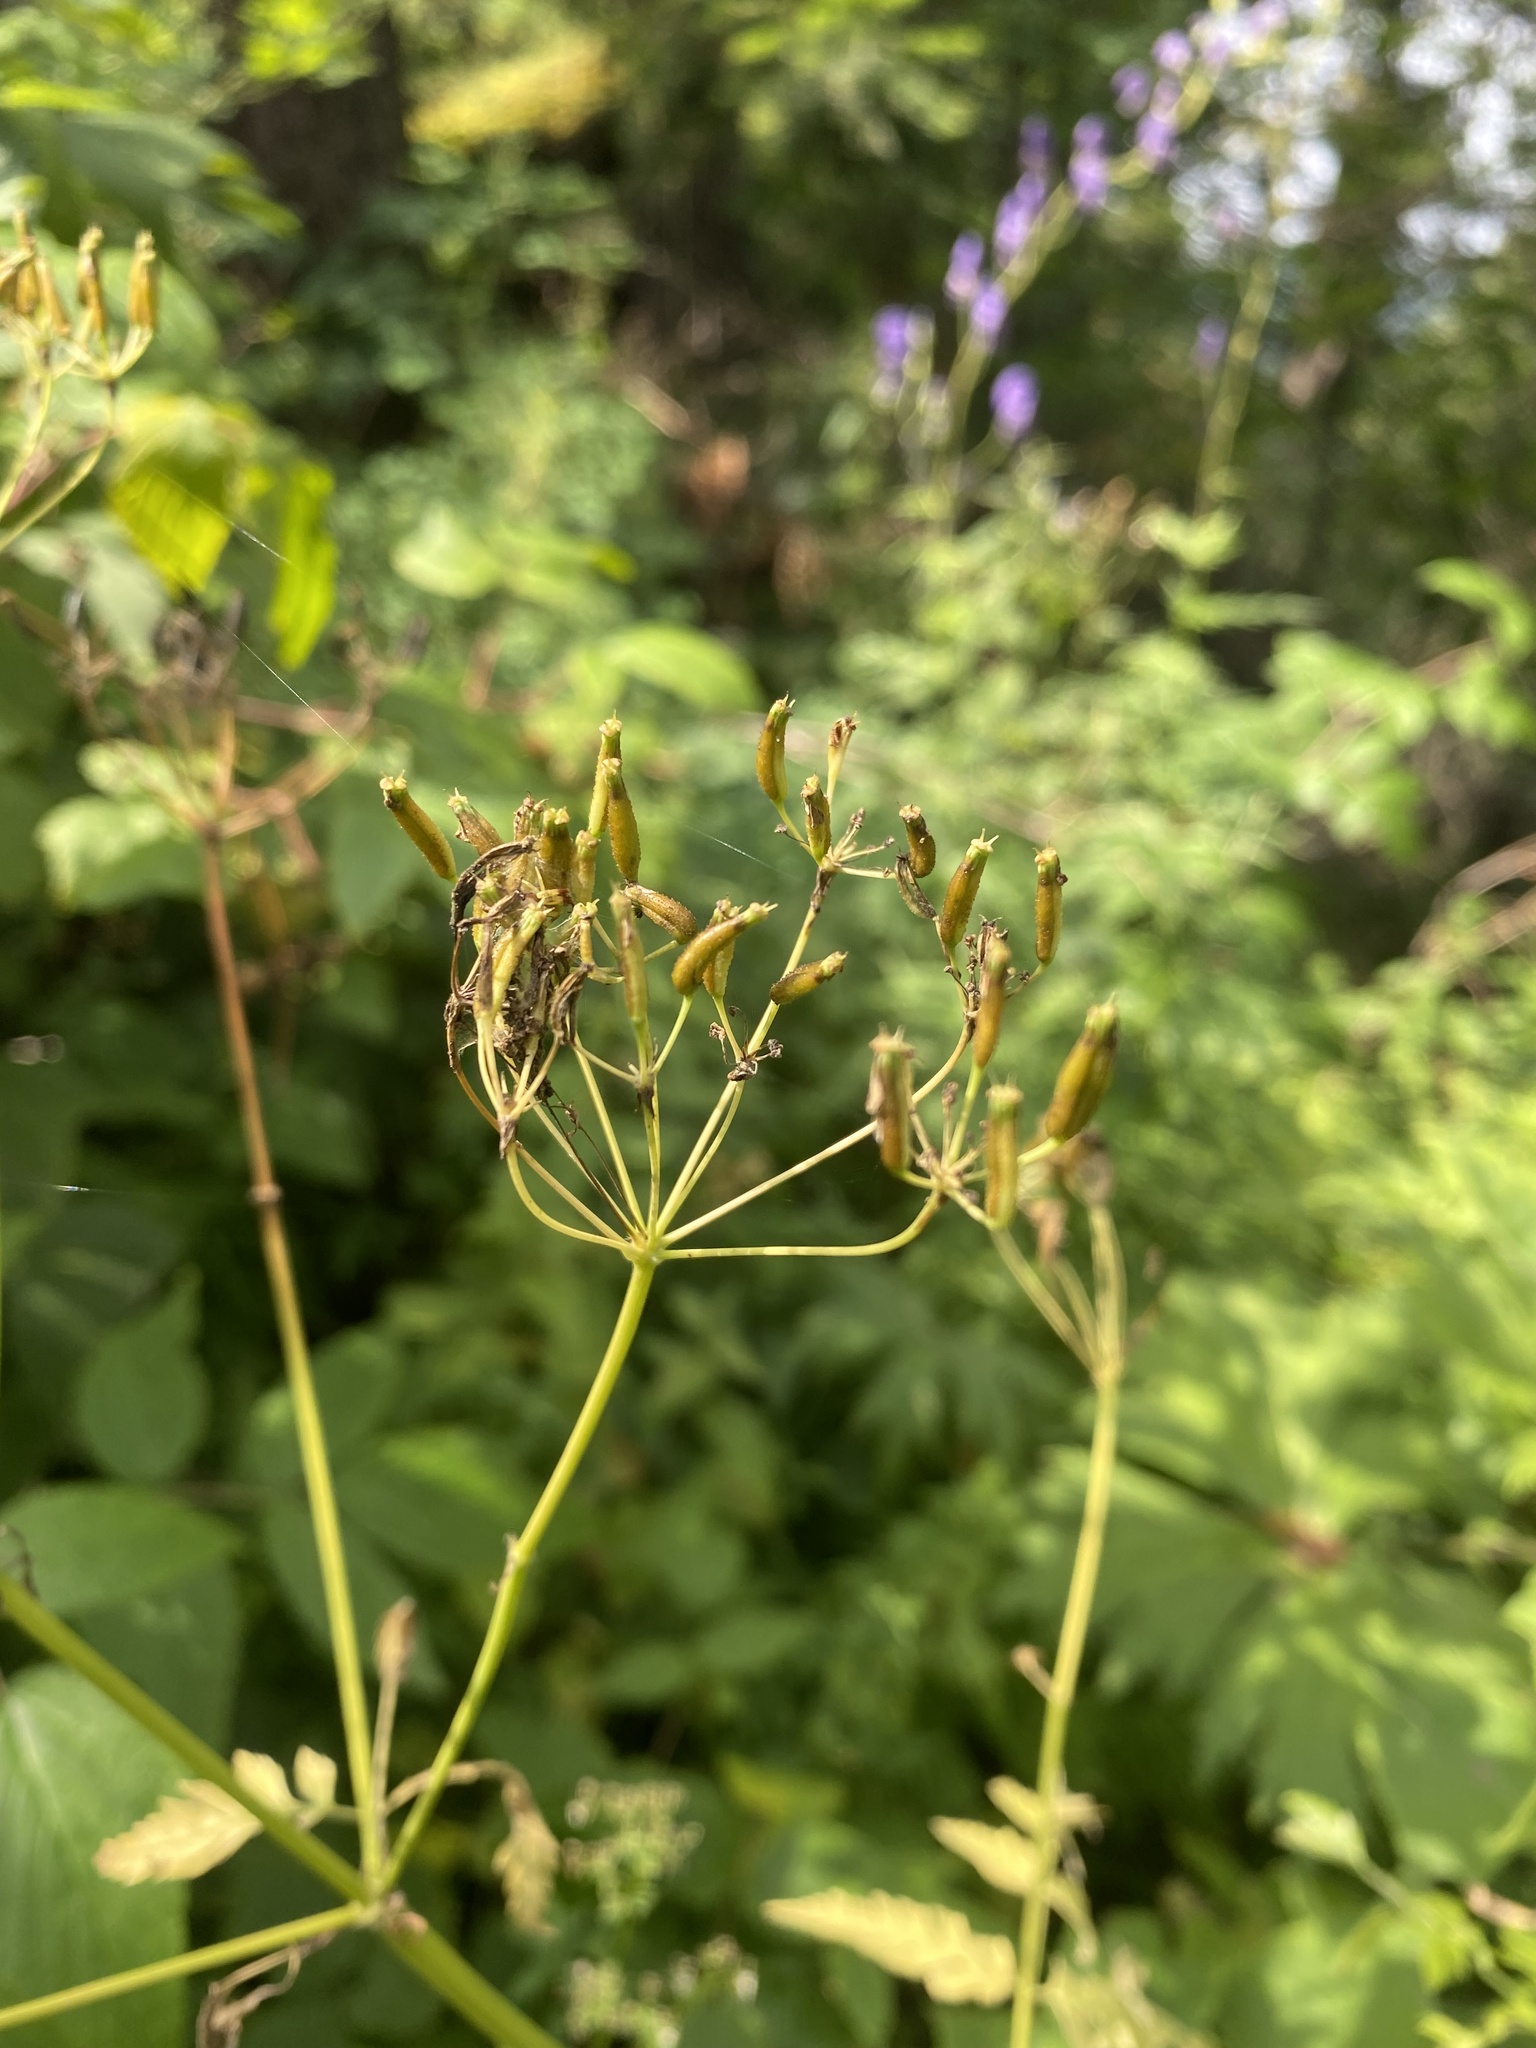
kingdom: Plantae
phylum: Tracheophyta
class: Magnoliopsida
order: Apiales
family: Apiaceae
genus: Anthriscus
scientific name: Anthriscus sylvestris
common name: Cow parsley
